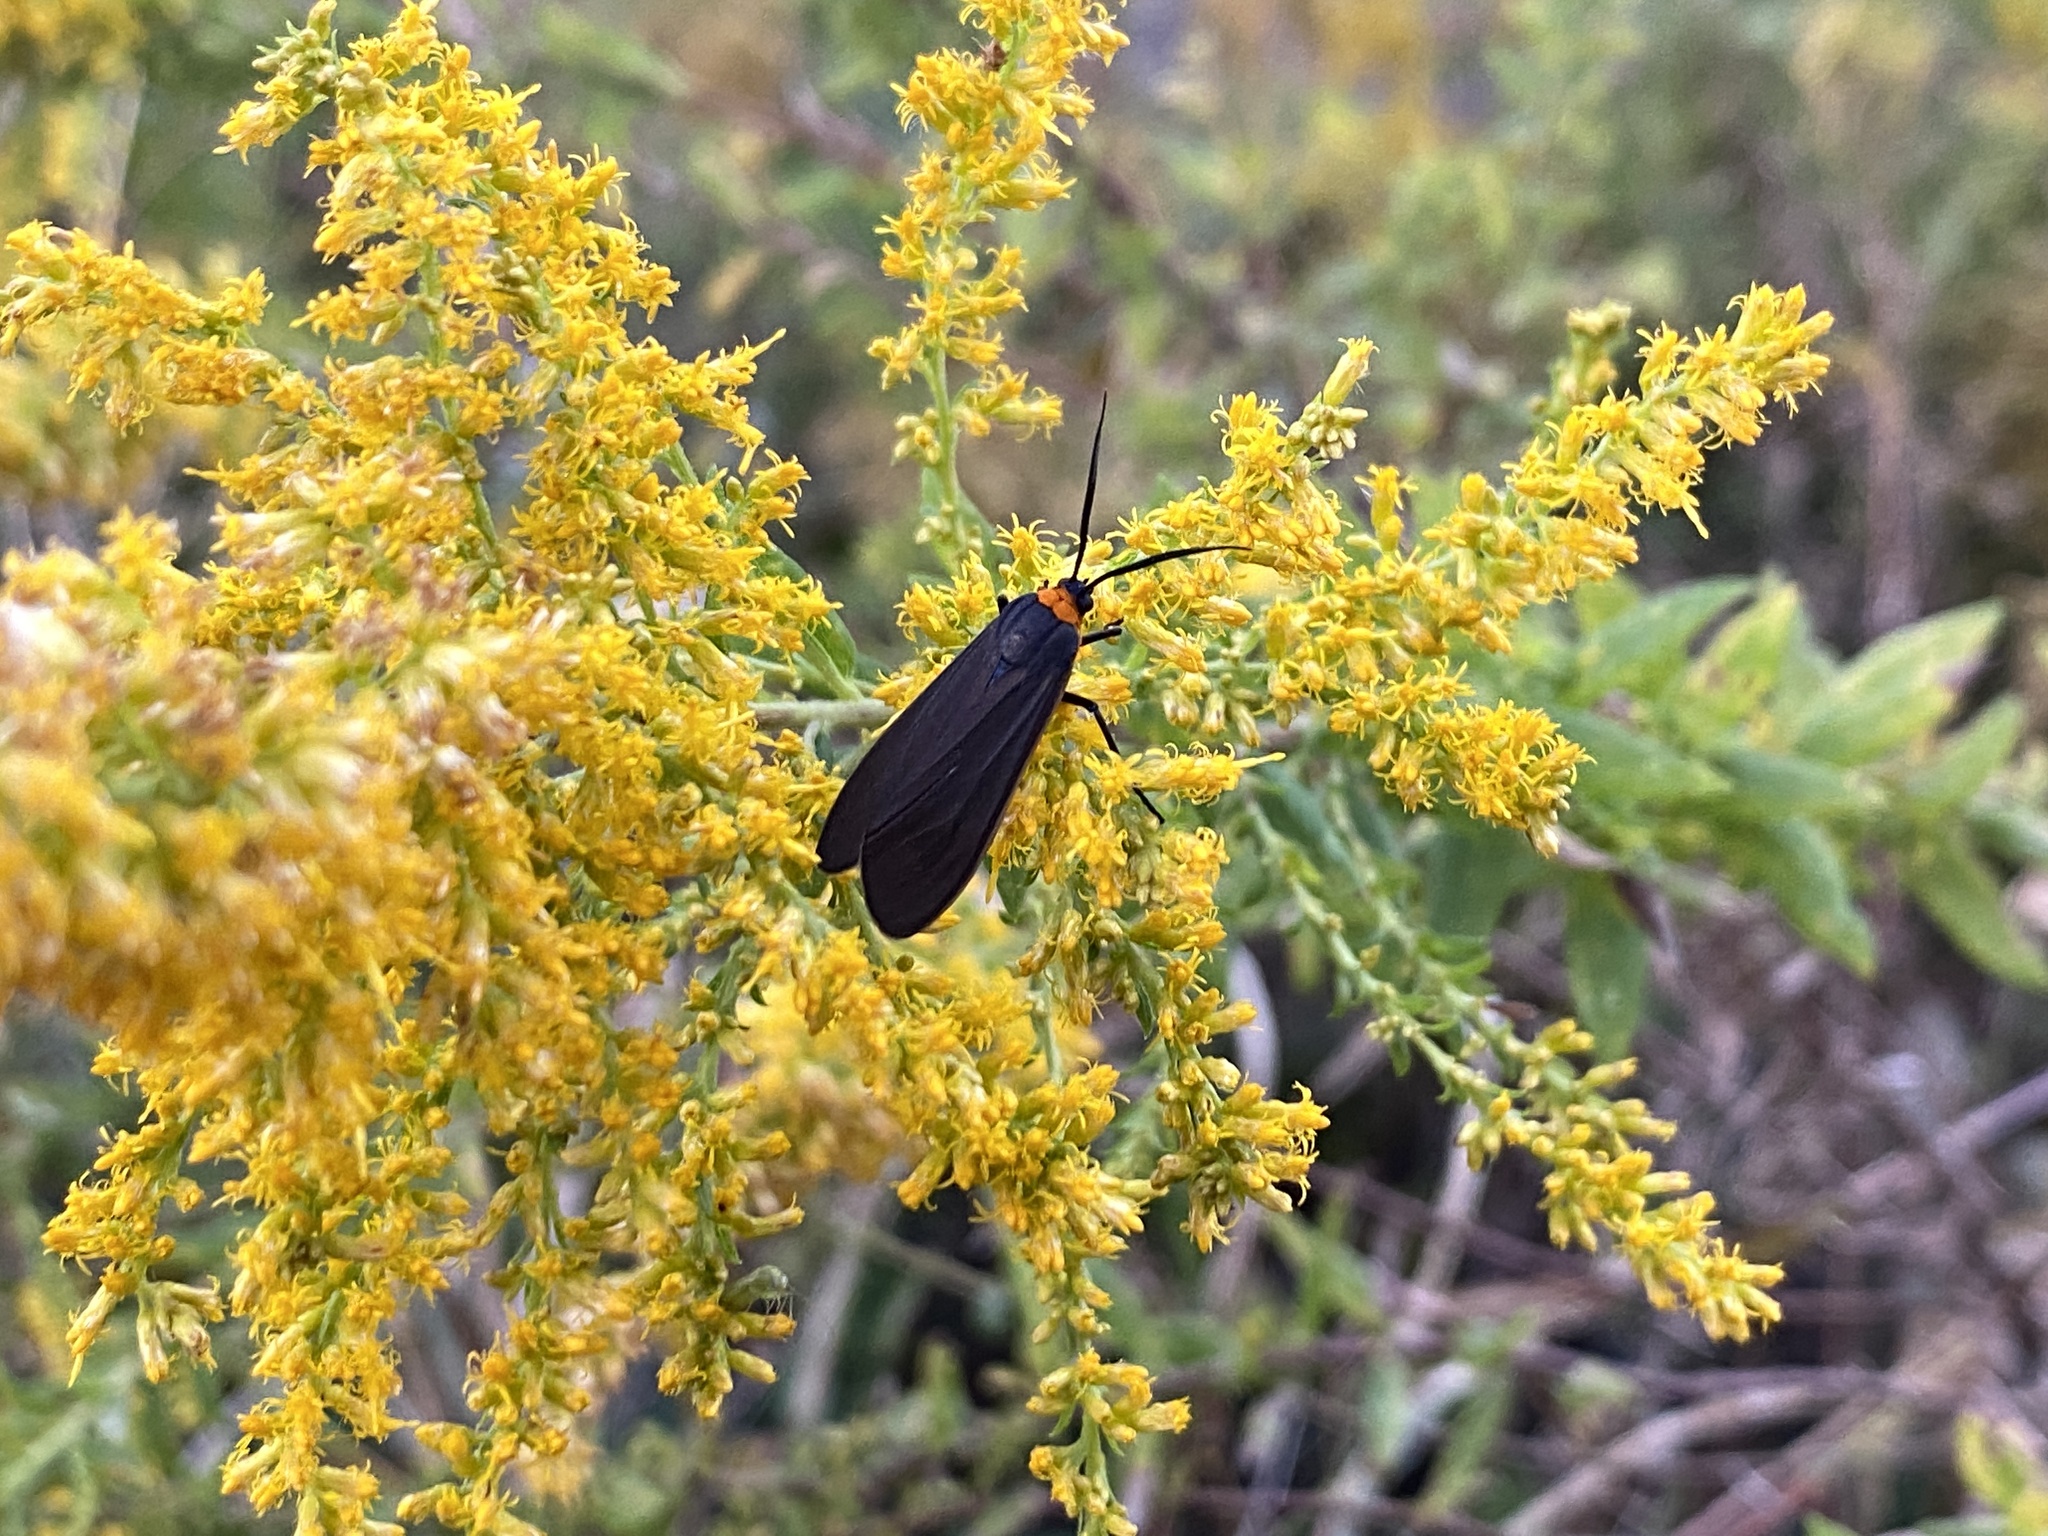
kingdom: Animalia
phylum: Arthropoda
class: Insecta
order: Lepidoptera
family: Erebidae
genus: Cisseps
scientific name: Cisseps fulvicollis
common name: Yellow-collared scape moth
